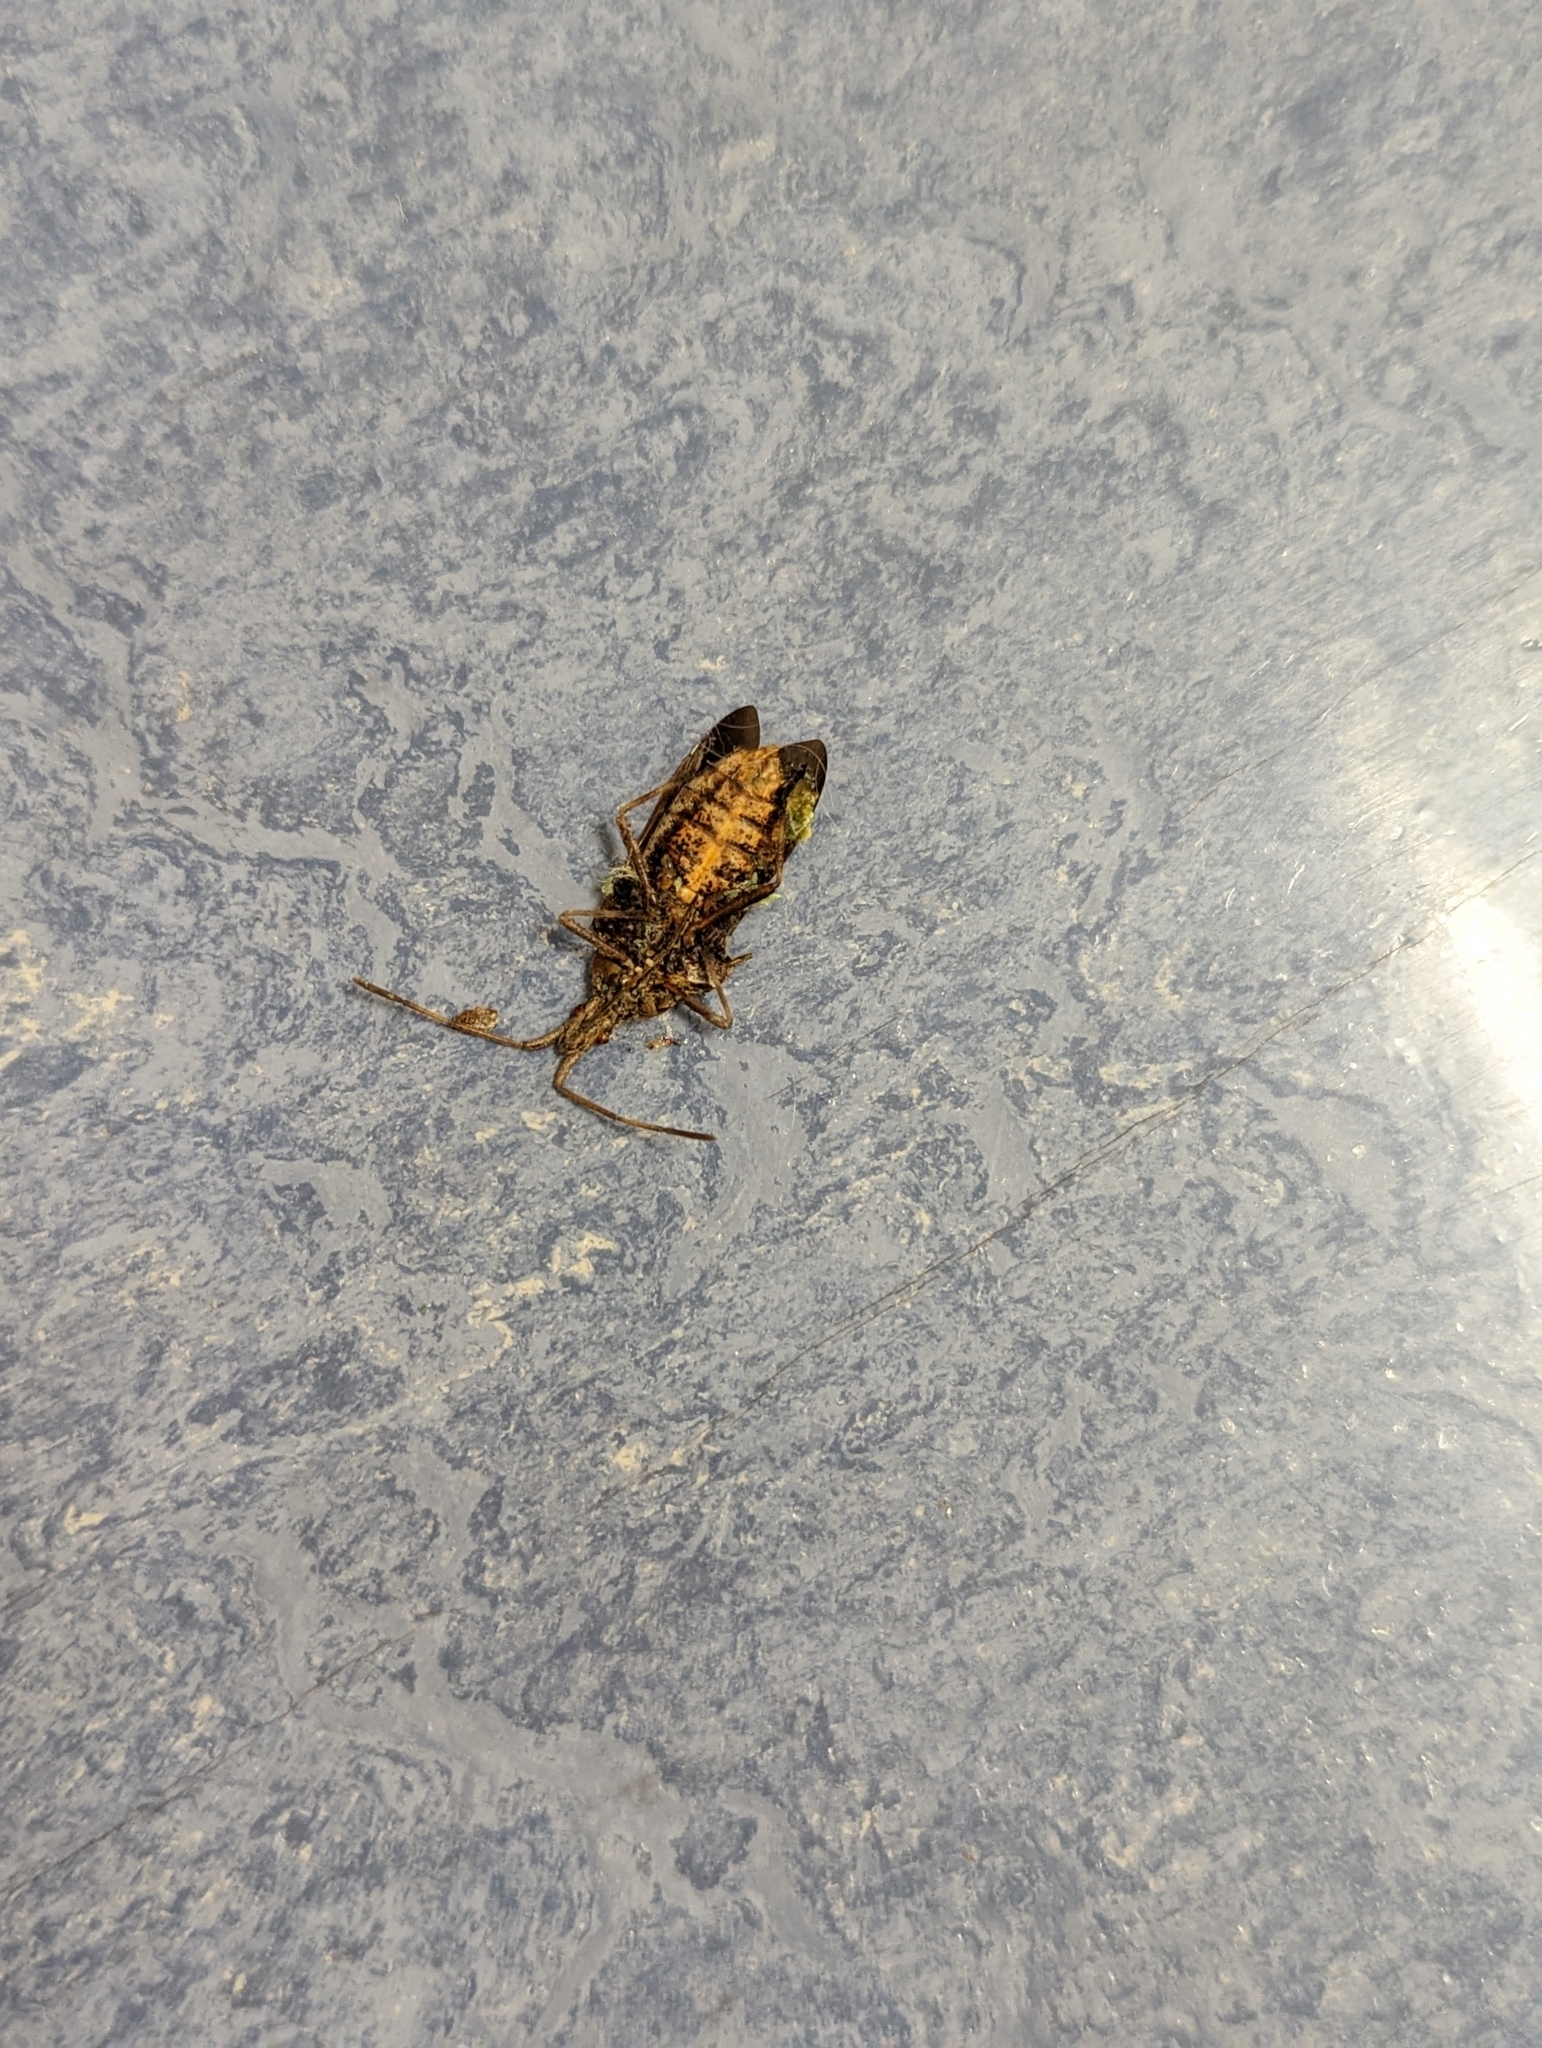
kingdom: Animalia
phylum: Arthropoda
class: Insecta
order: Hemiptera
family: Coreidae
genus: Leptoglossus
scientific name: Leptoglossus occidentalis
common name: Western conifer-seed bug
